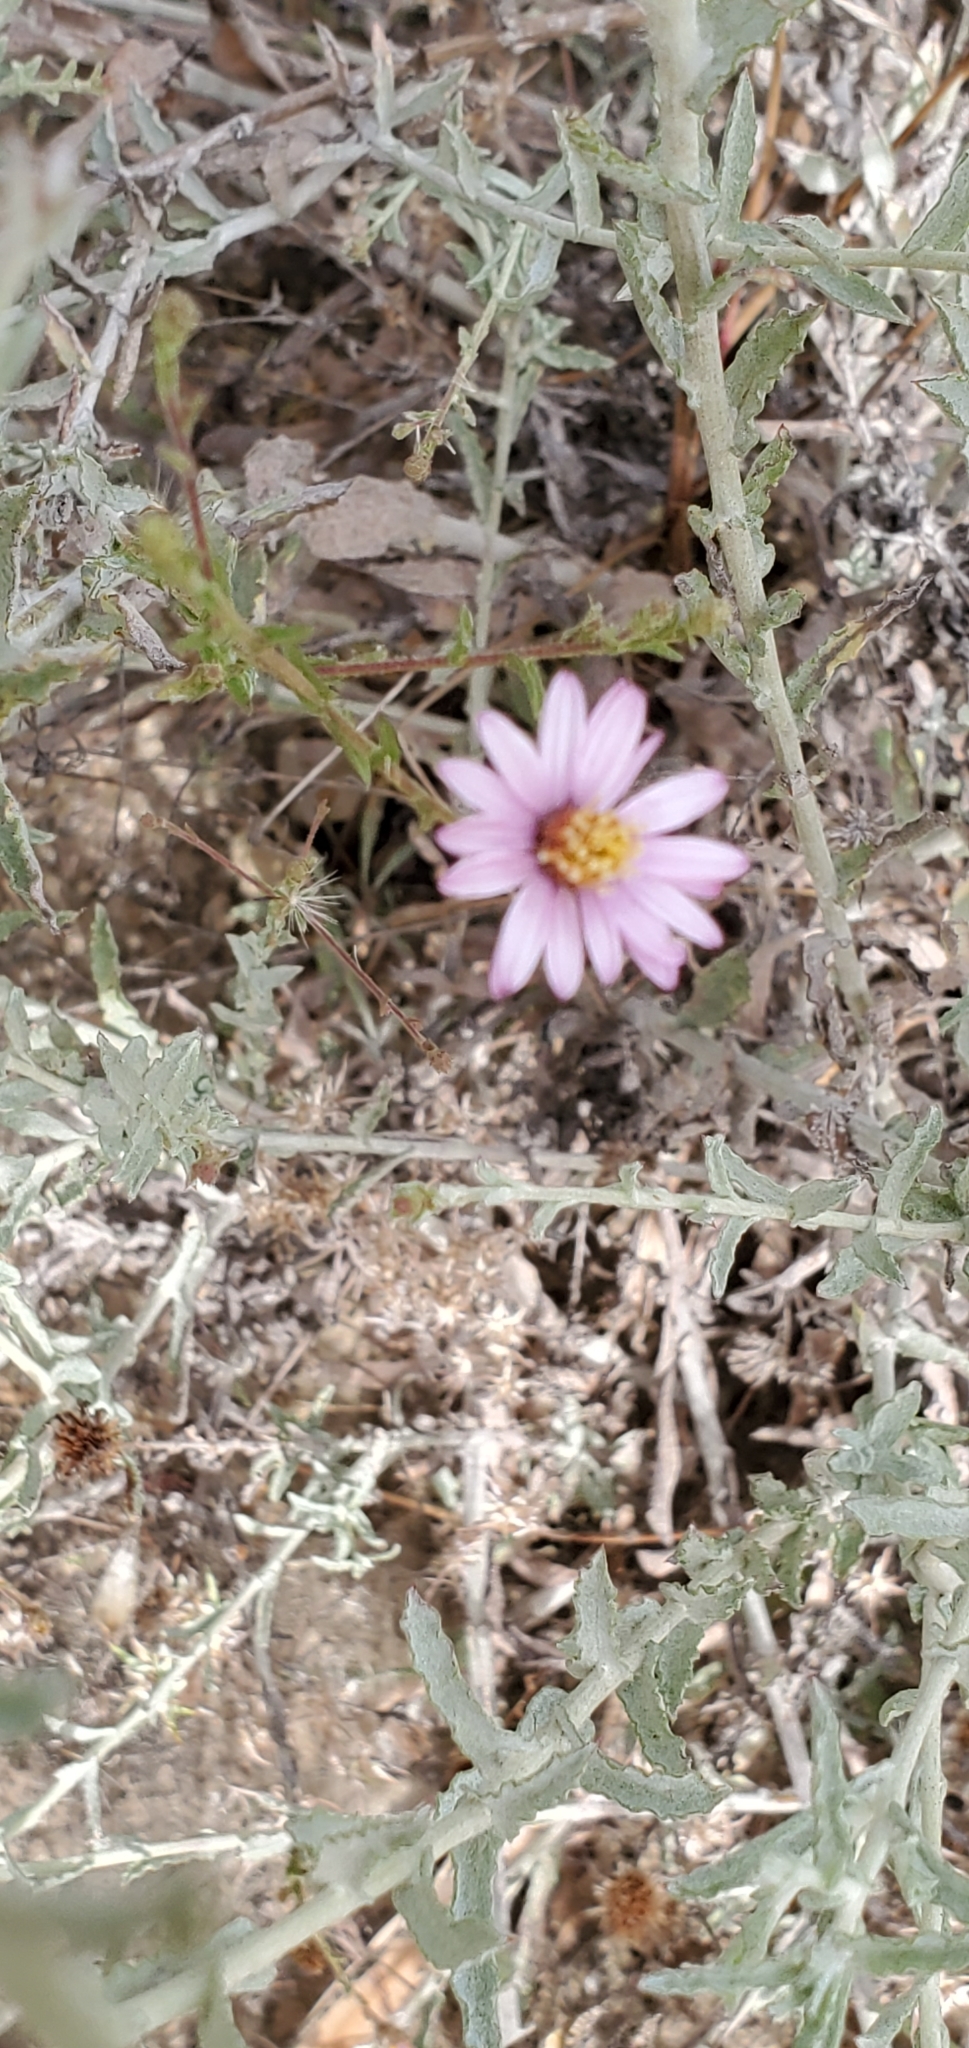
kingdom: Plantae
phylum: Tracheophyta
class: Magnoliopsida
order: Asterales
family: Asteraceae
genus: Corethrogyne
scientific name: Corethrogyne filaginifolia
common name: Sand-aster
